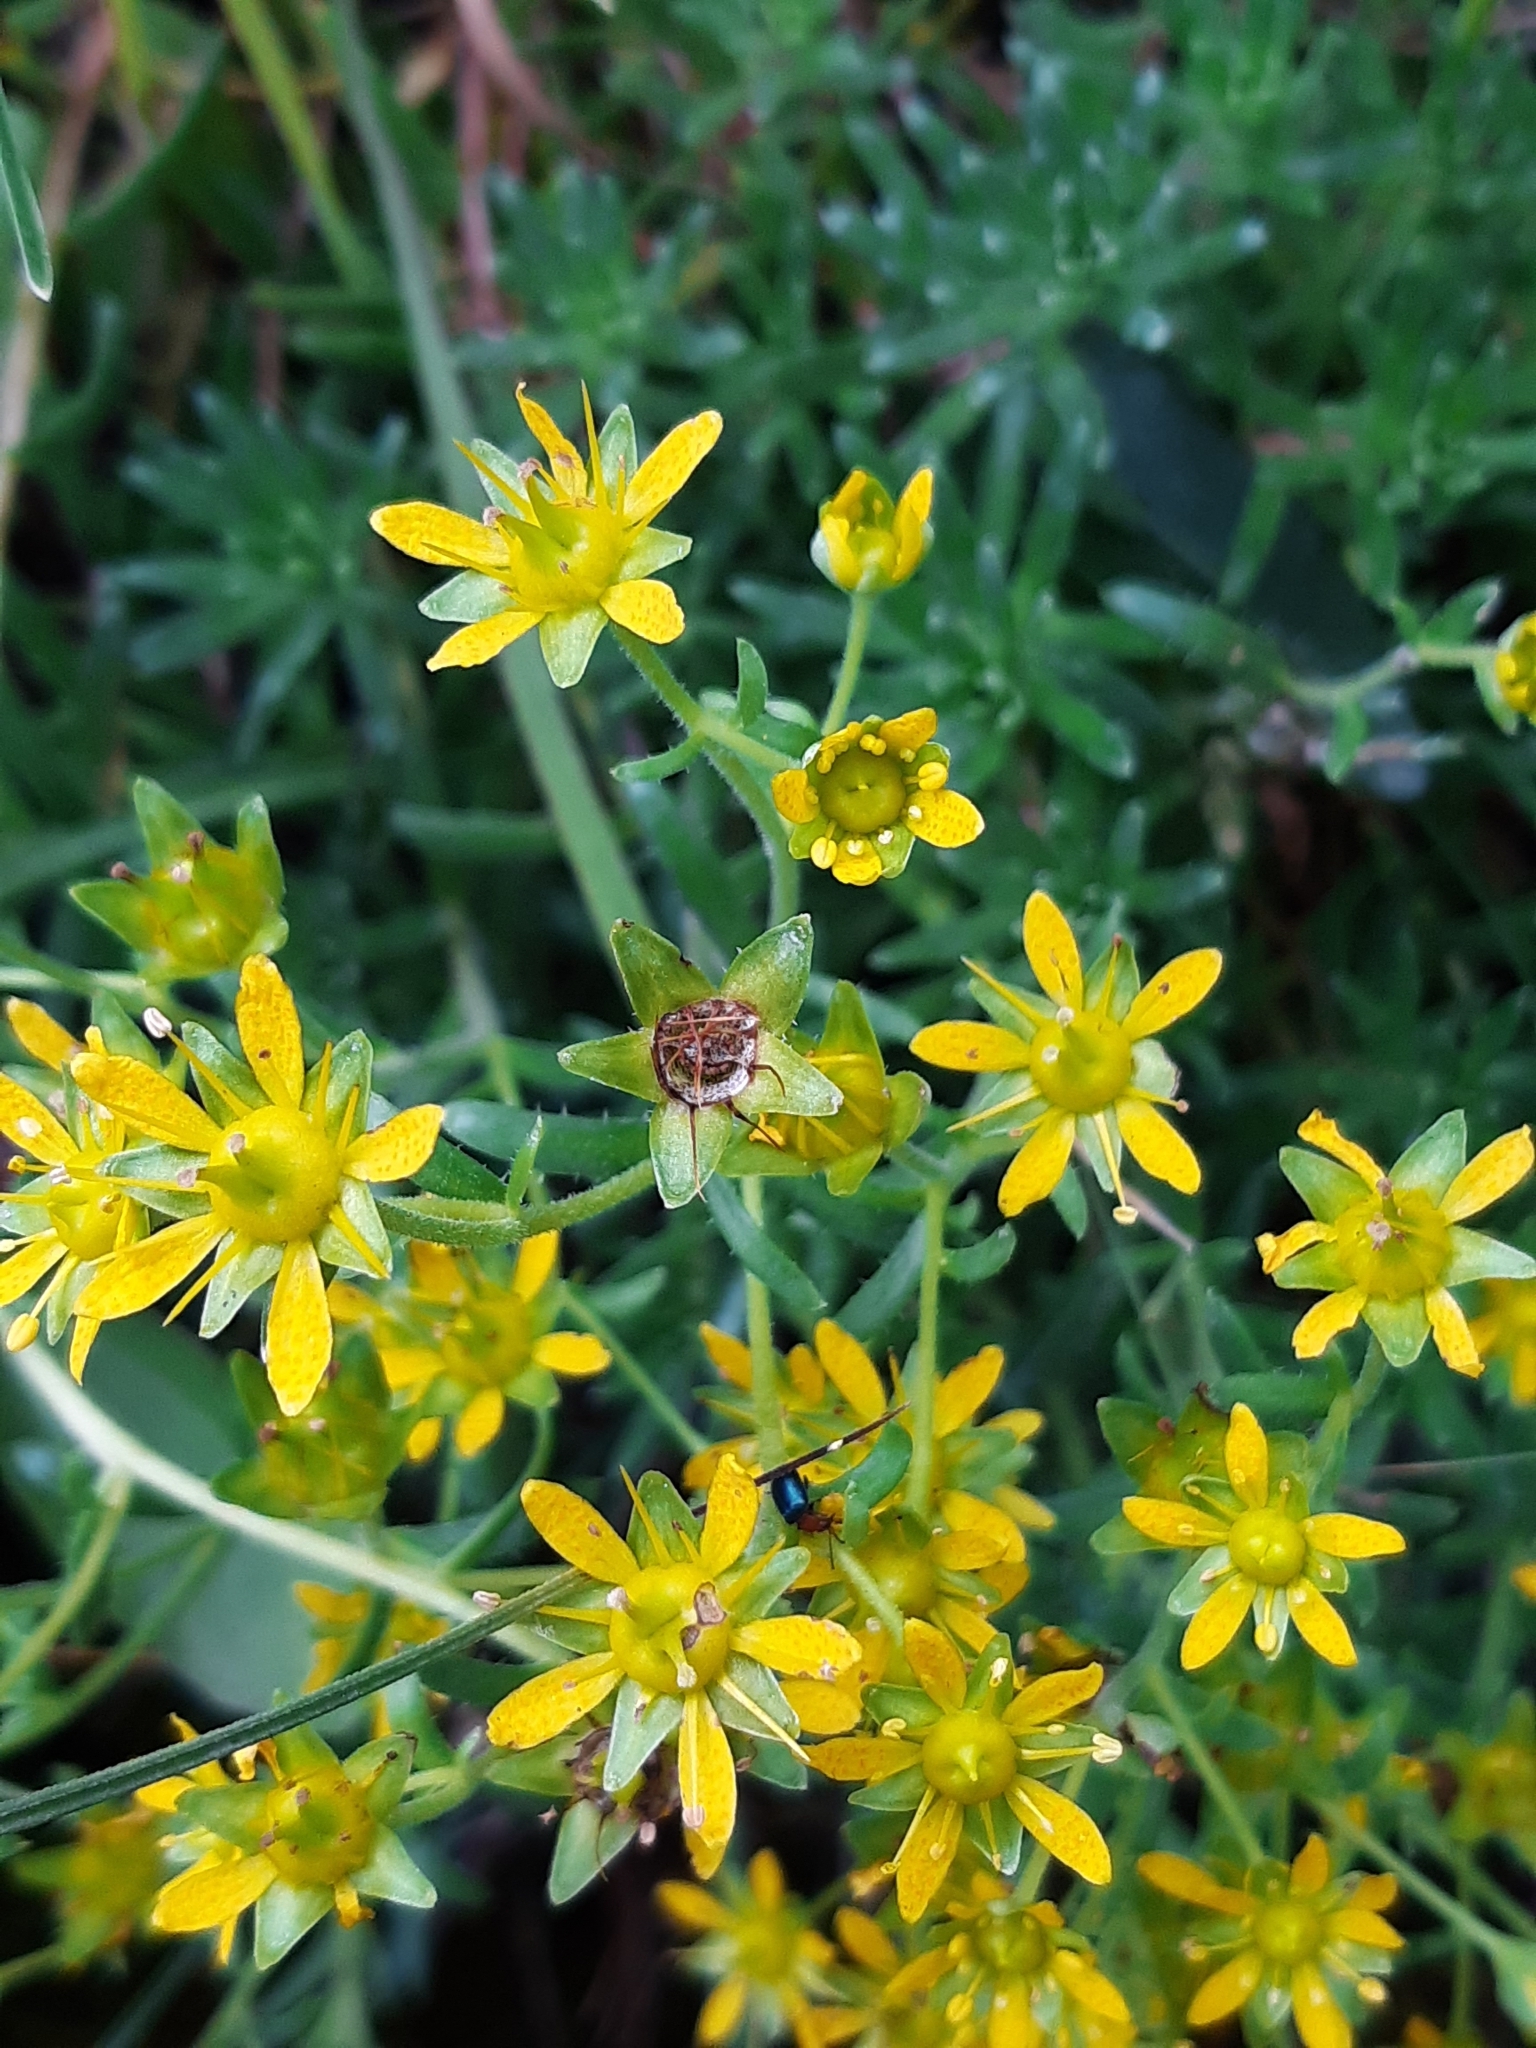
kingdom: Plantae
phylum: Tracheophyta
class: Magnoliopsida
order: Saxifragales
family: Saxifragaceae
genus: Saxifraga
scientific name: Saxifraga aizoides
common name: Yellow mountain saxifrage
